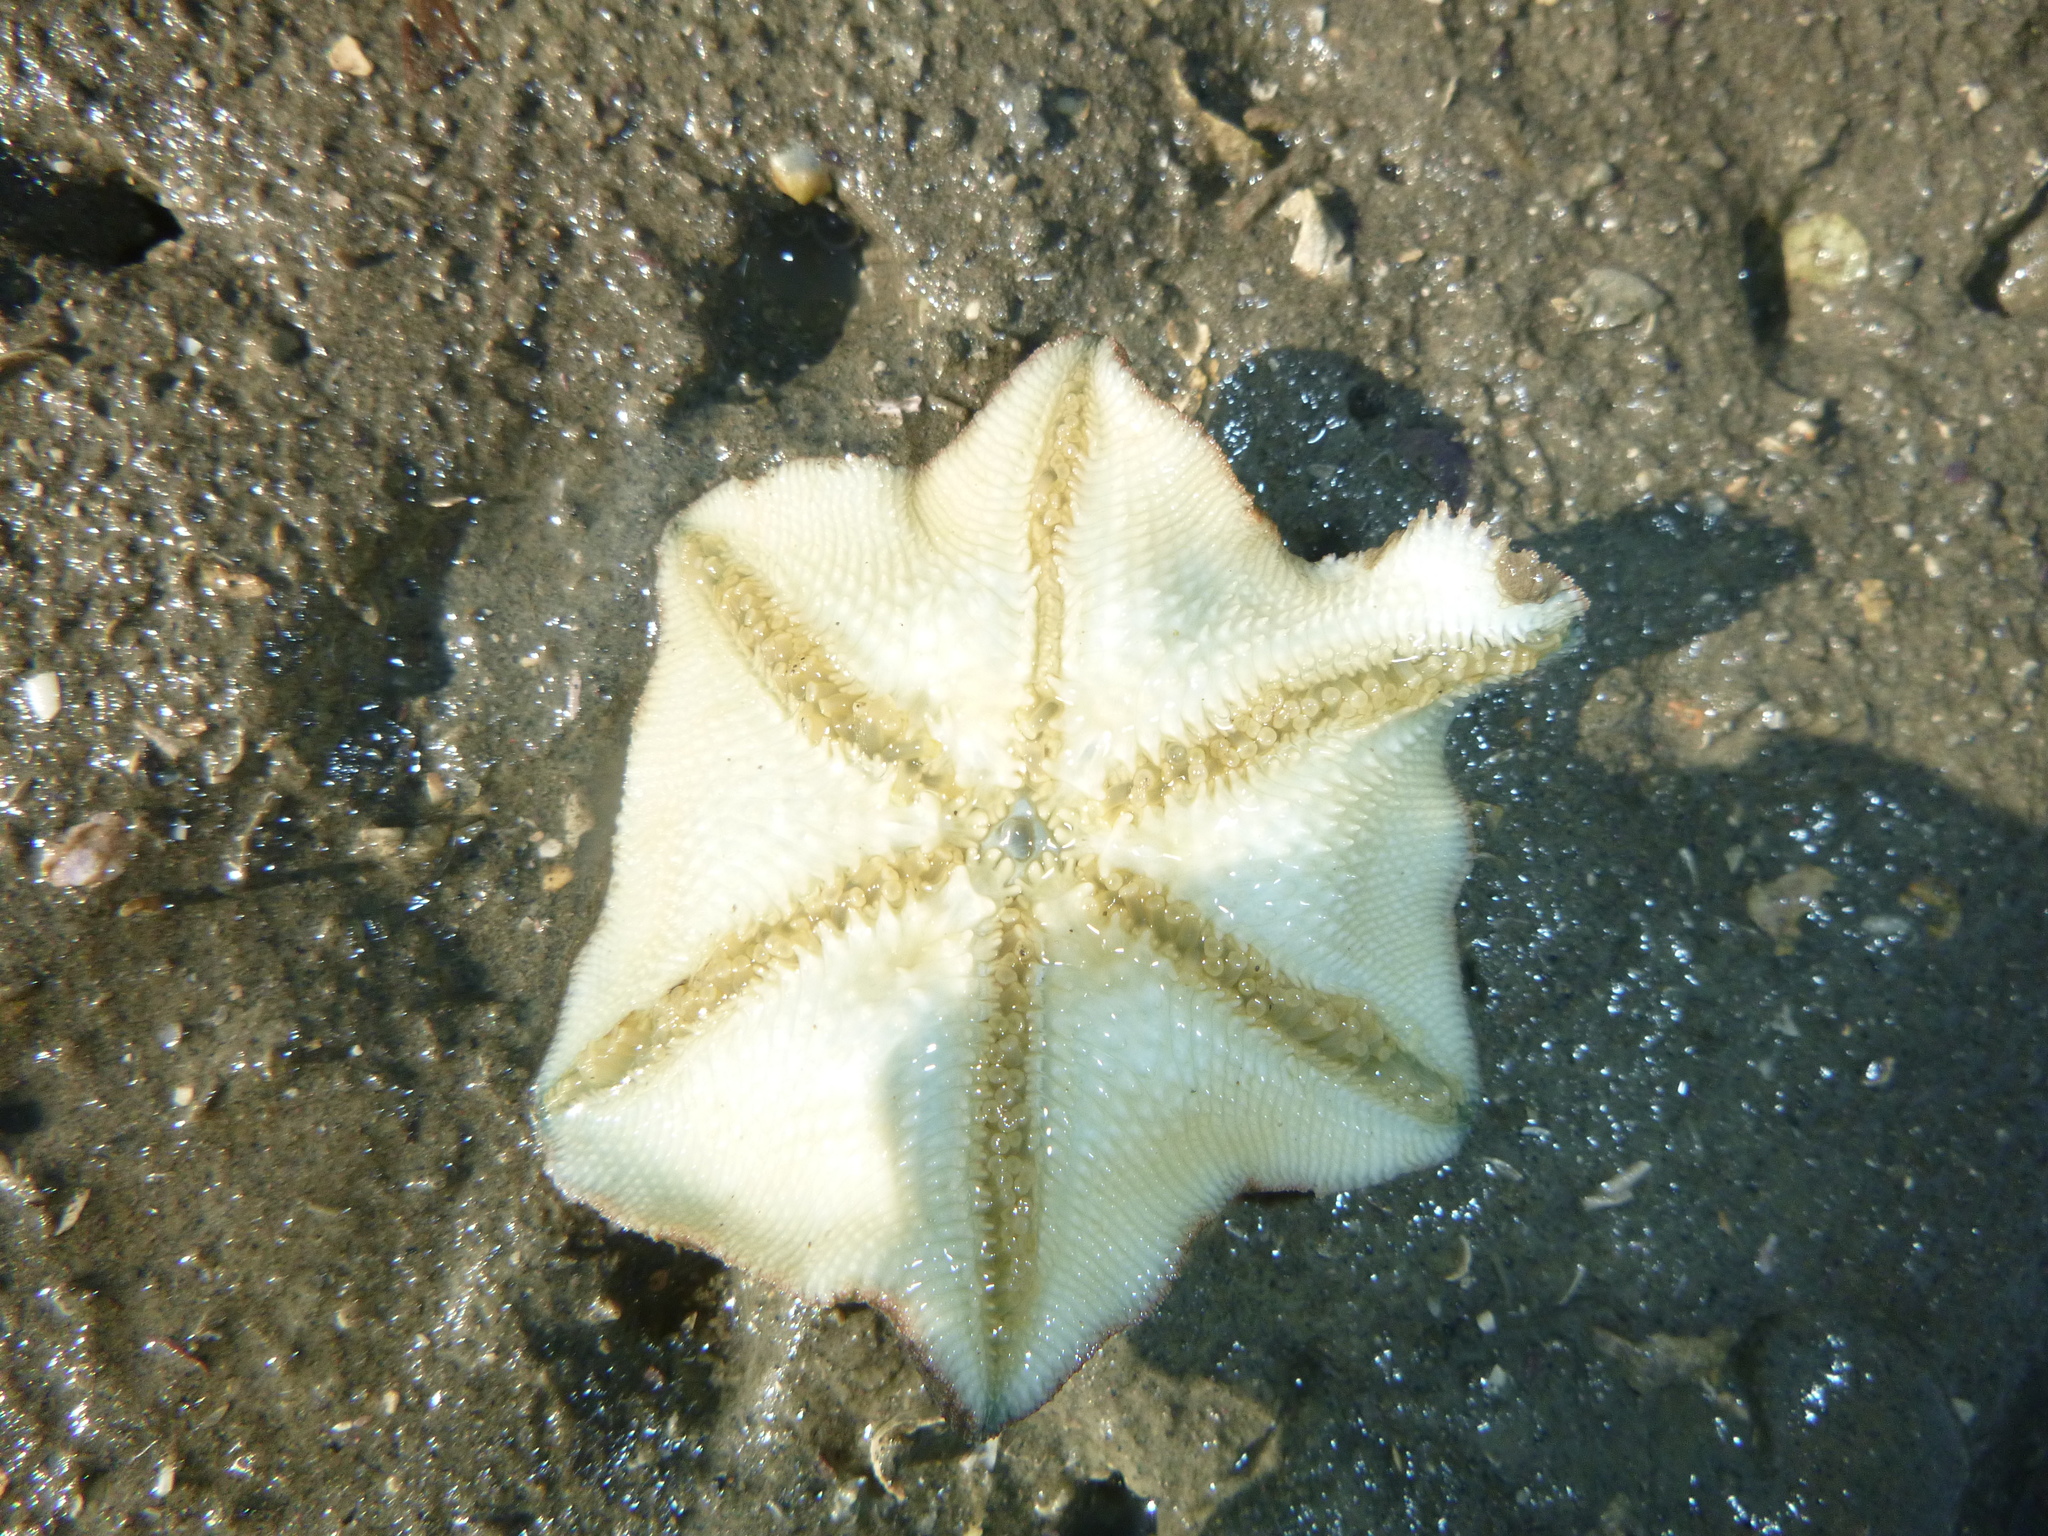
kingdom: Animalia
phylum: Echinodermata
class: Asteroidea
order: Valvatida
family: Asterinidae
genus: Patiriella
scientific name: Patiriella regularis
